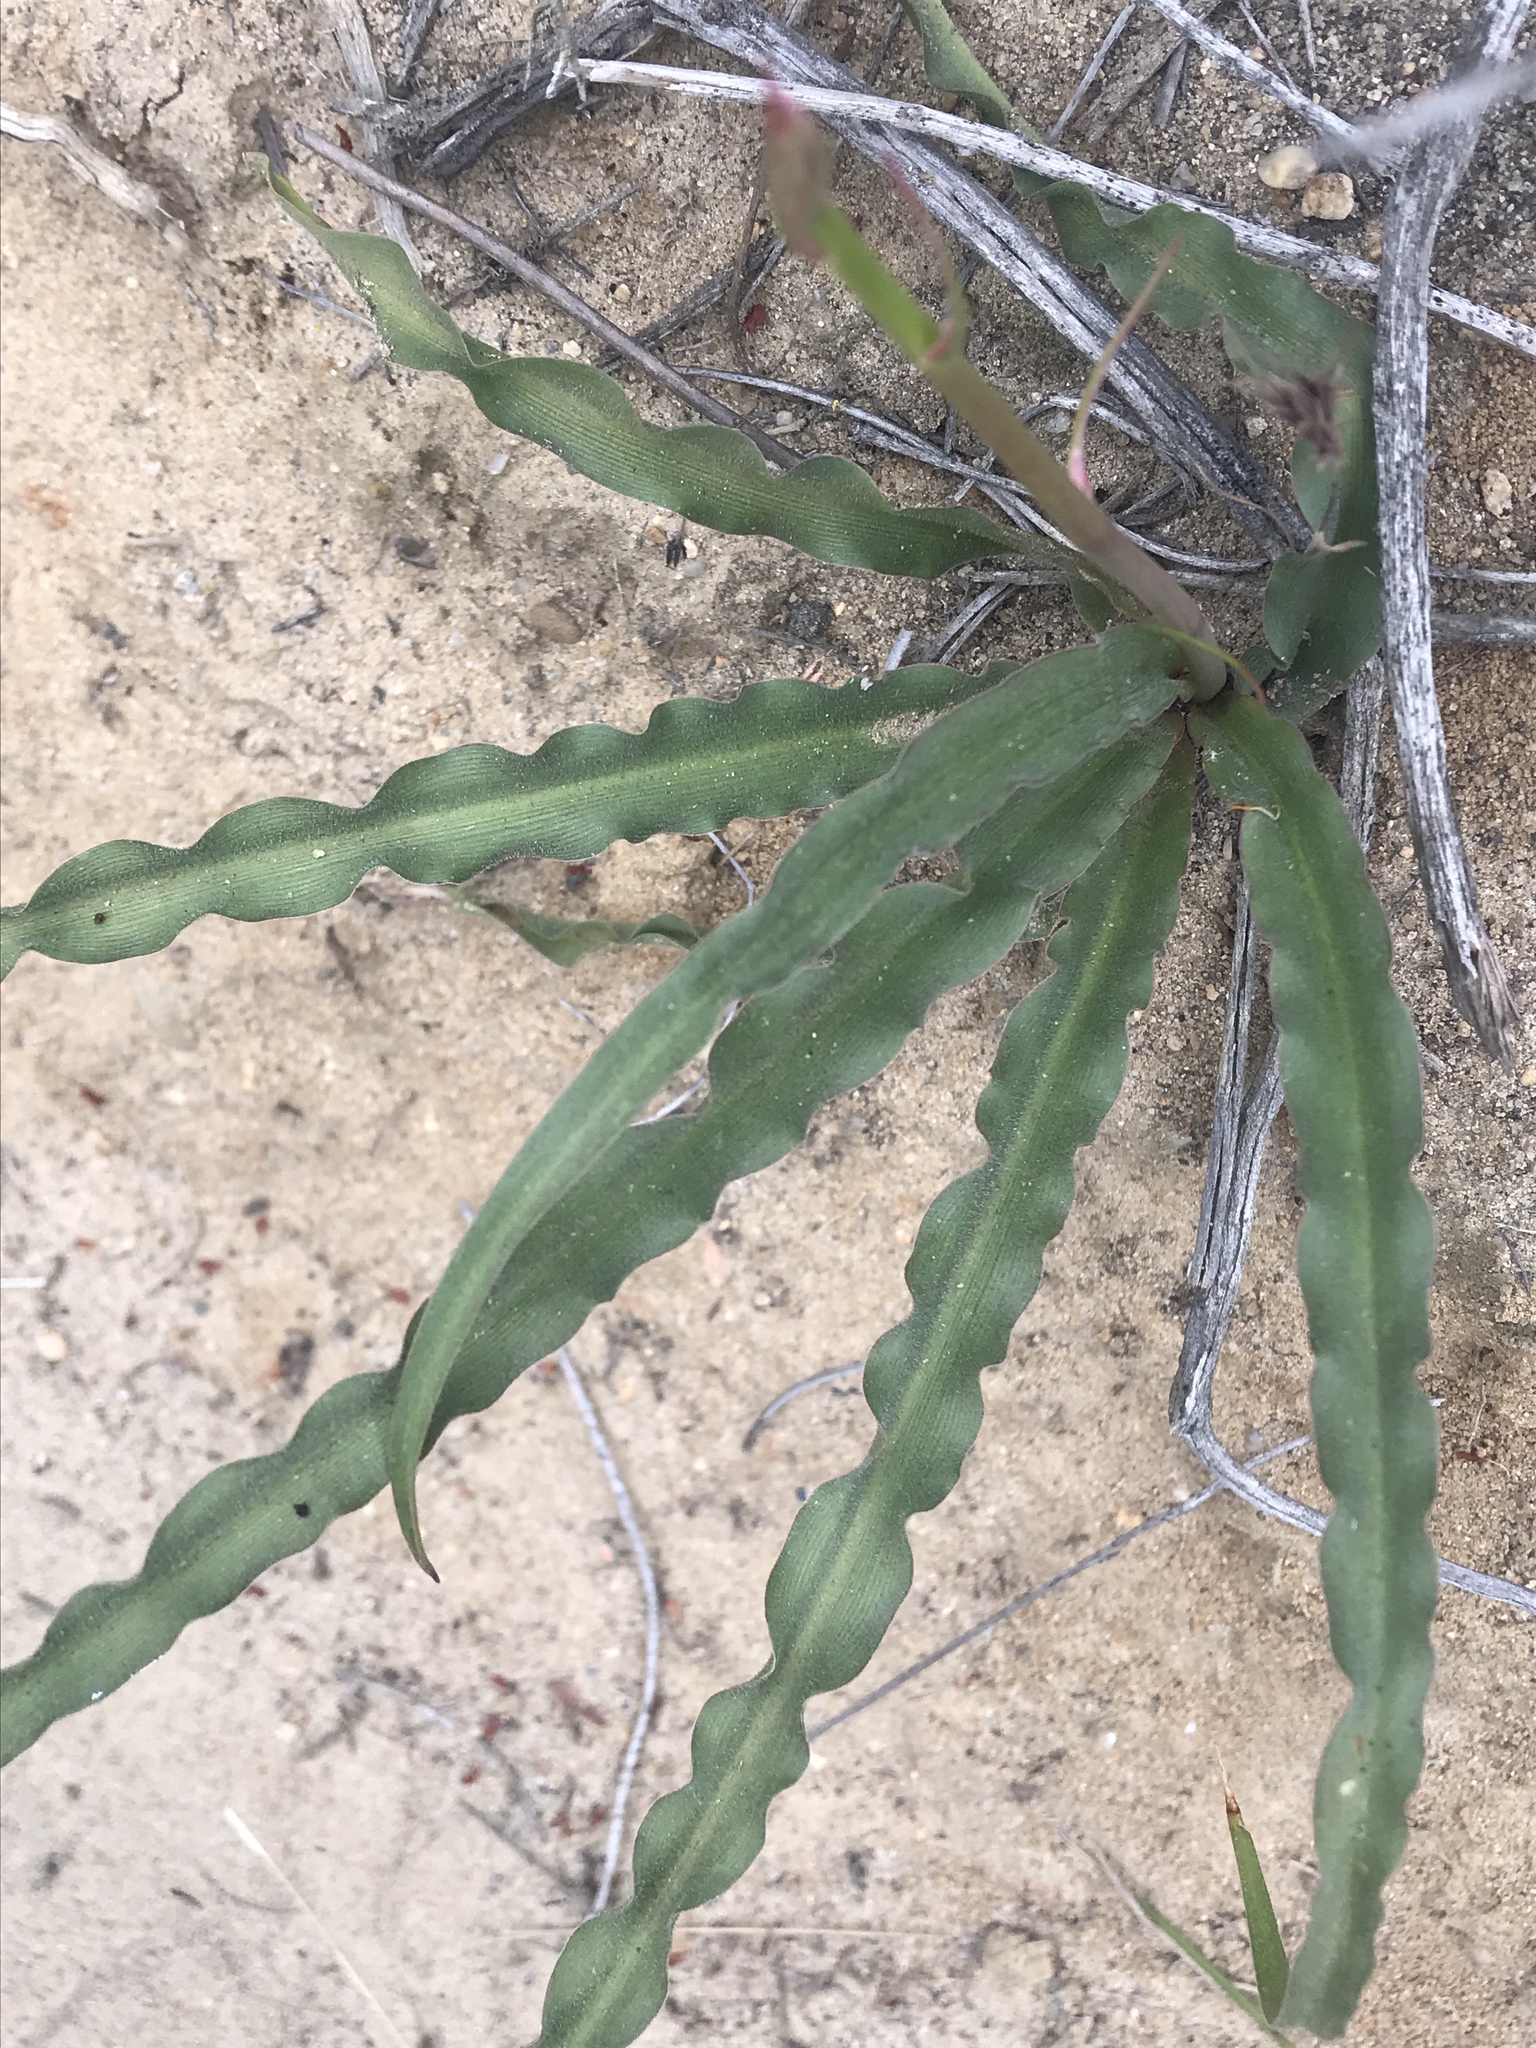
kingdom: Plantae
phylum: Tracheophyta
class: Liliopsida
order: Asparagales
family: Asparagaceae
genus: Hooveria
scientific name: Hooveria parviflora
